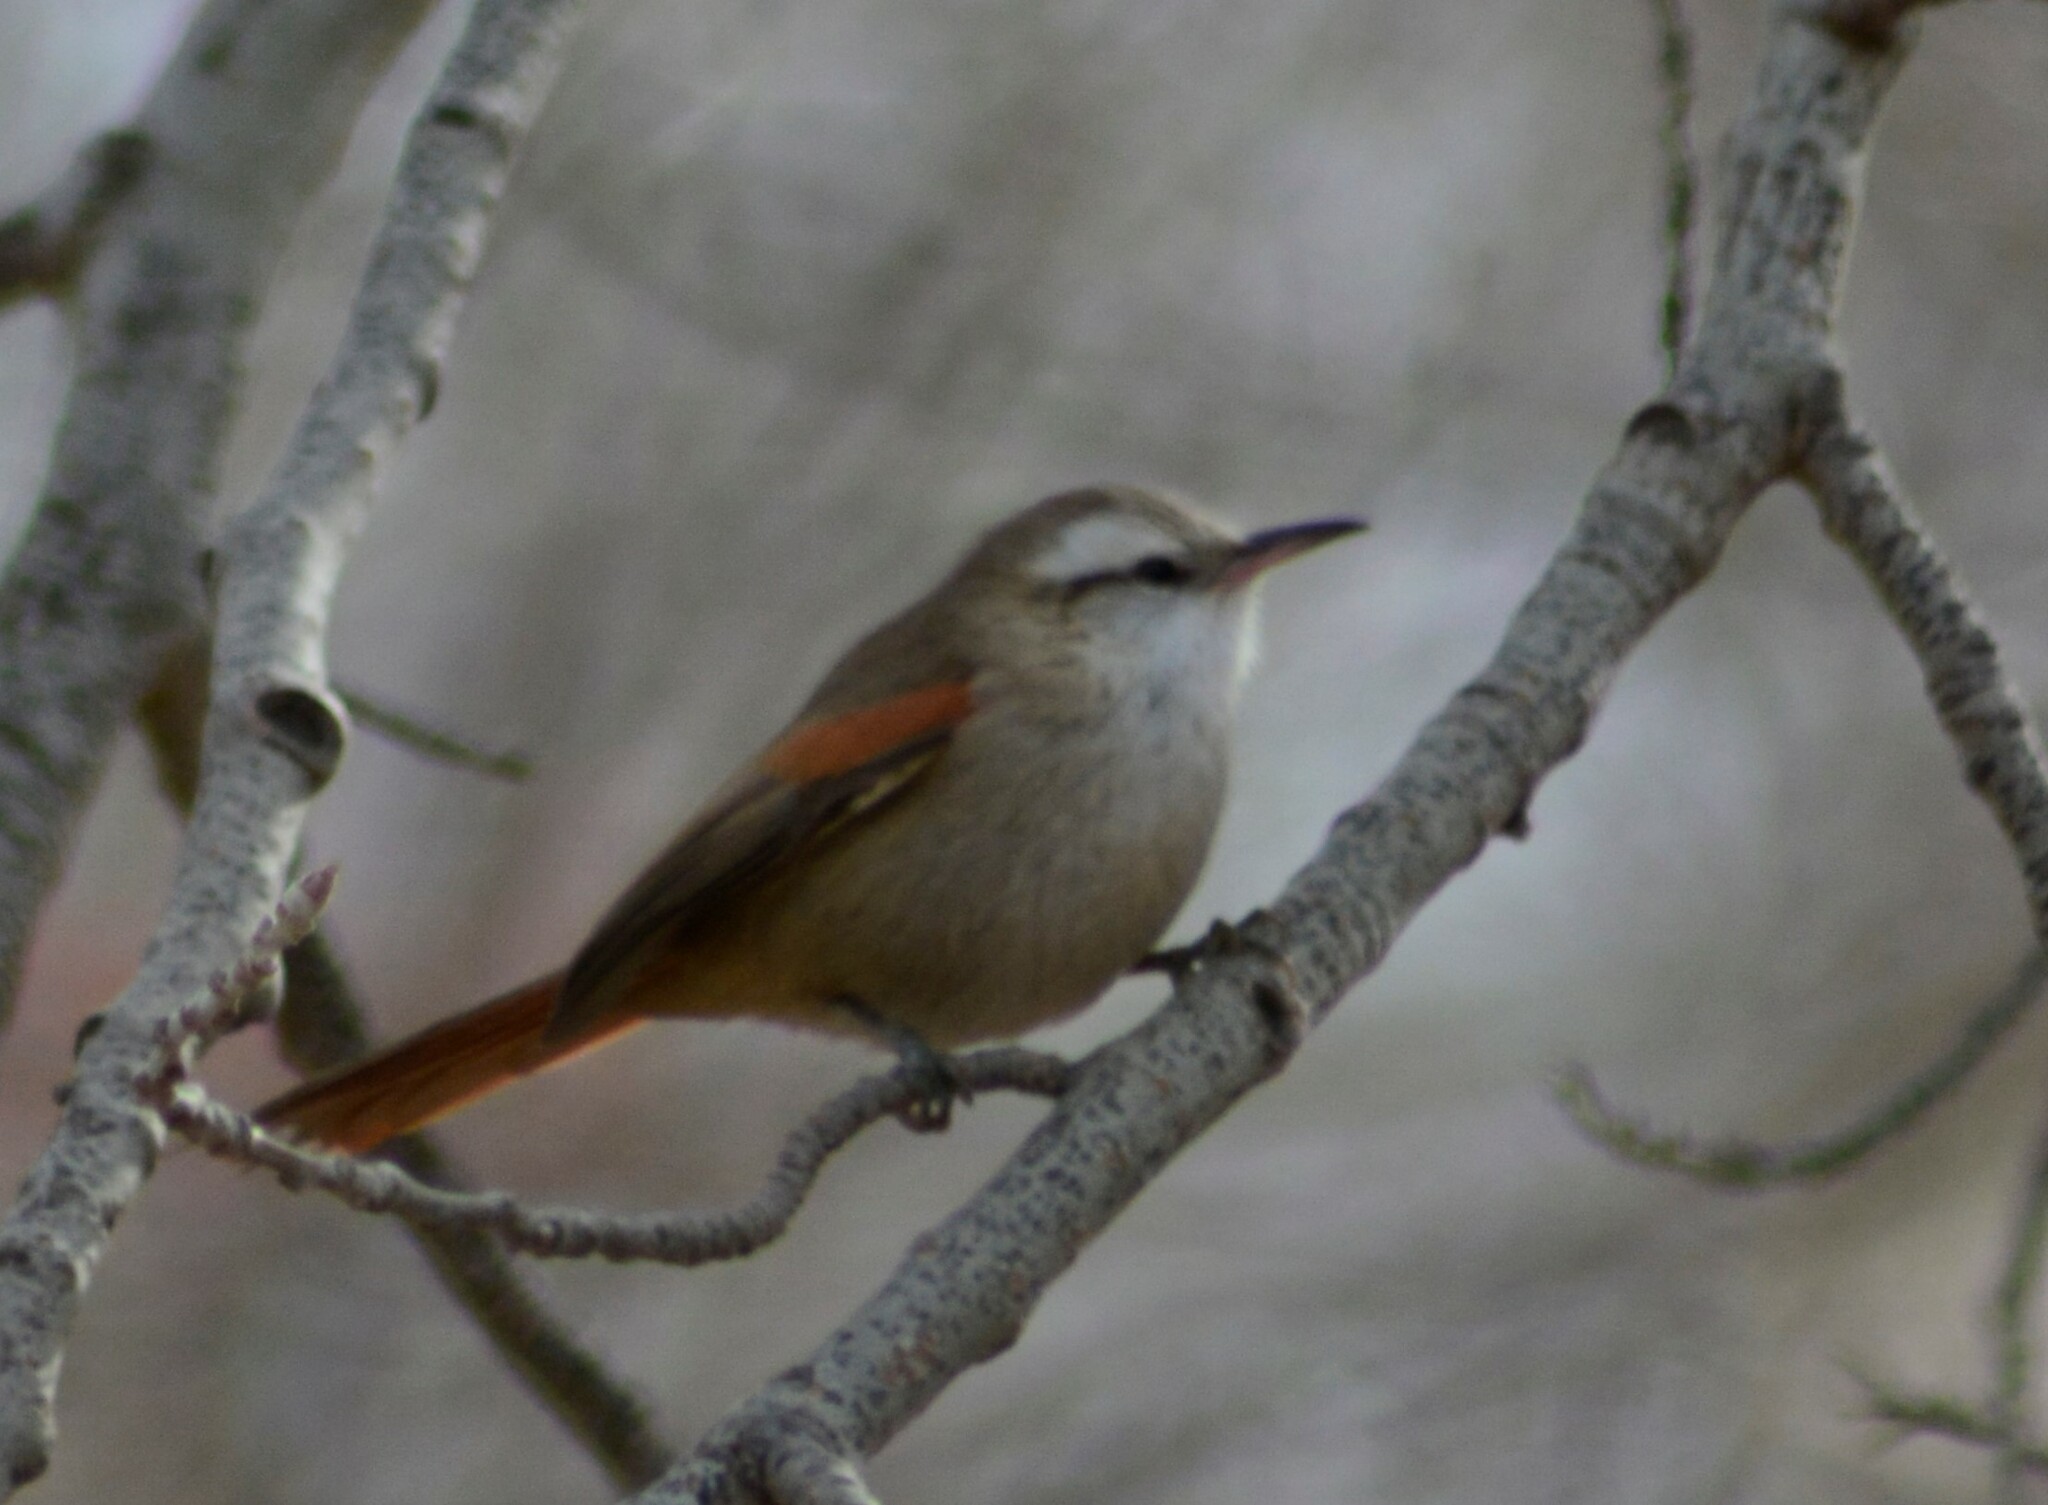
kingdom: Animalia
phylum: Chordata
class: Aves
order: Passeriformes
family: Furnariidae
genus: Cranioleuca
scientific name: Cranioleuca pyrrhophia
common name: Stripe-crowned spinetail
